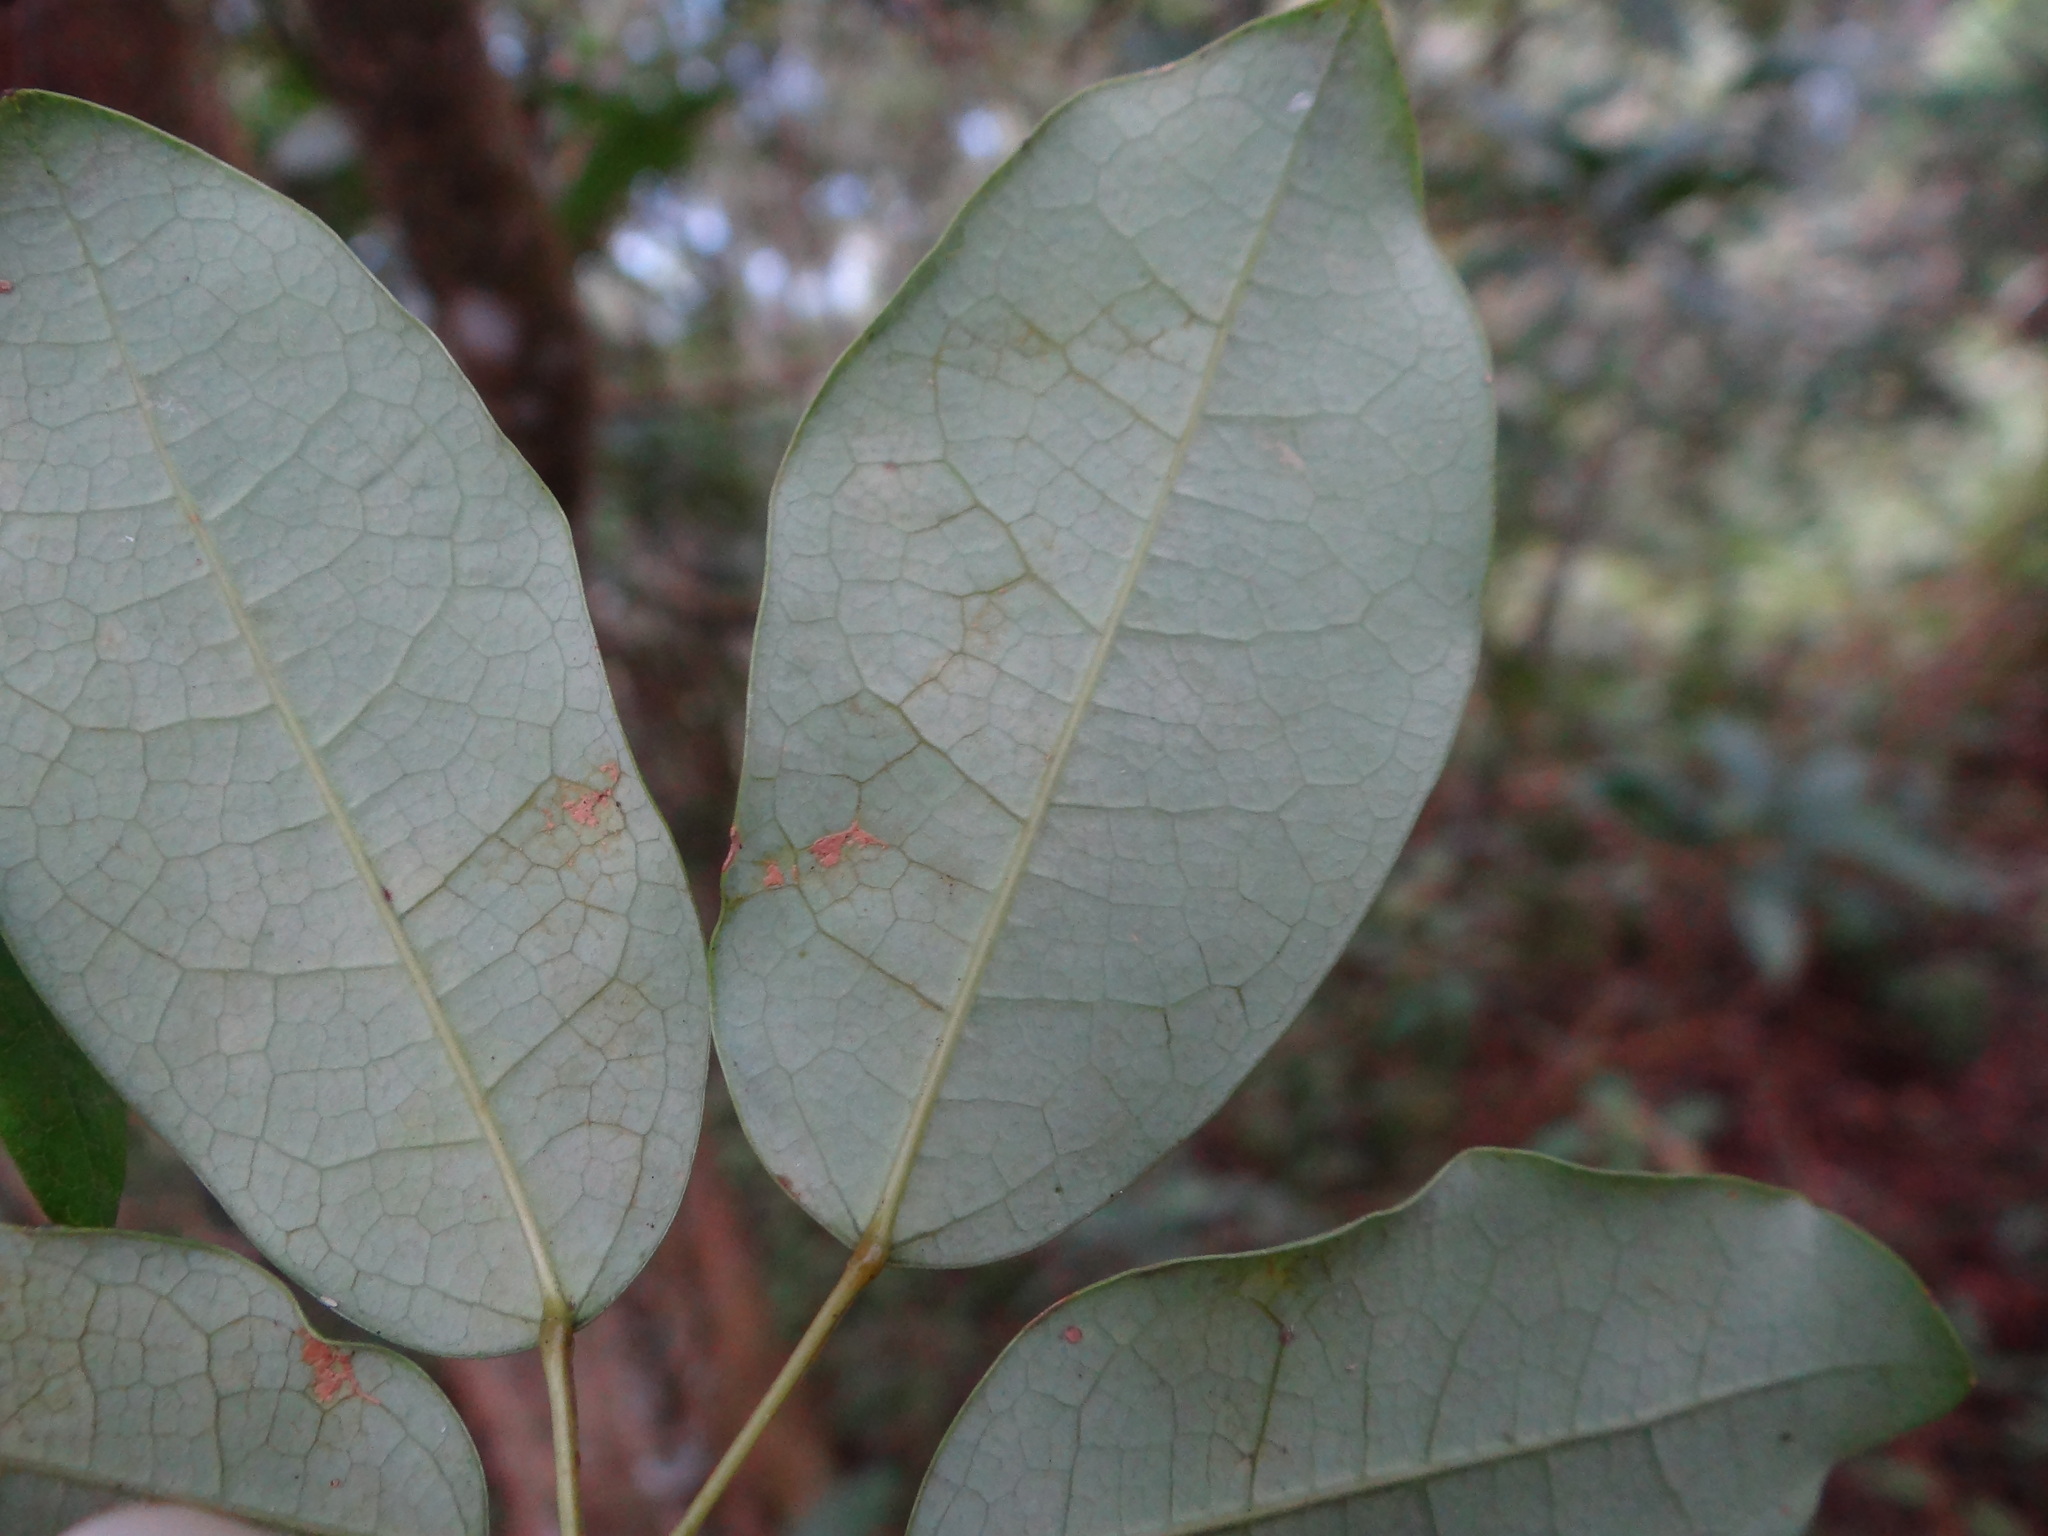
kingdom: Plantae
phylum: Tracheophyta
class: Magnoliopsida
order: Ranunculales
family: Lardizabalaceae
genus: Stauntonia
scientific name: Stauntonia obovata
